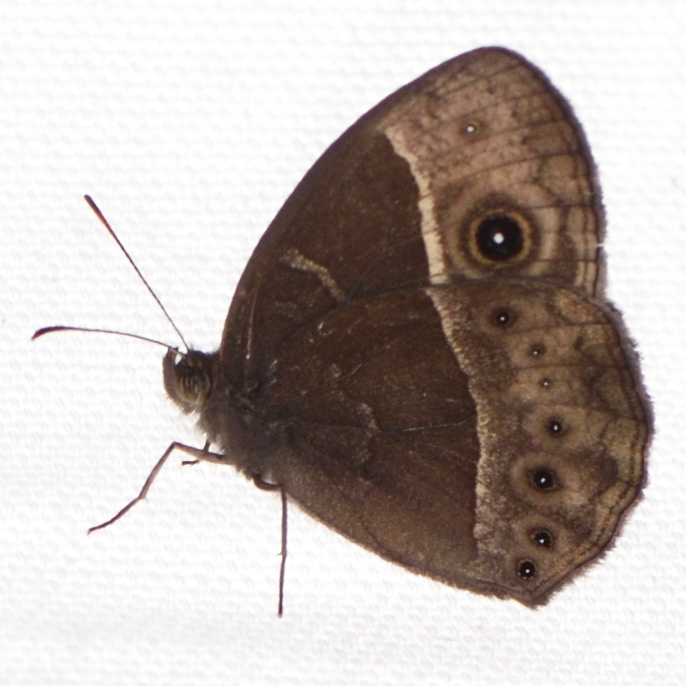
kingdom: Animalia
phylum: Arthropoda
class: Insecta
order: Lepidoptera
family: Nymphalidae
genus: Mycalesis
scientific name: Mycalesis rhacotis
